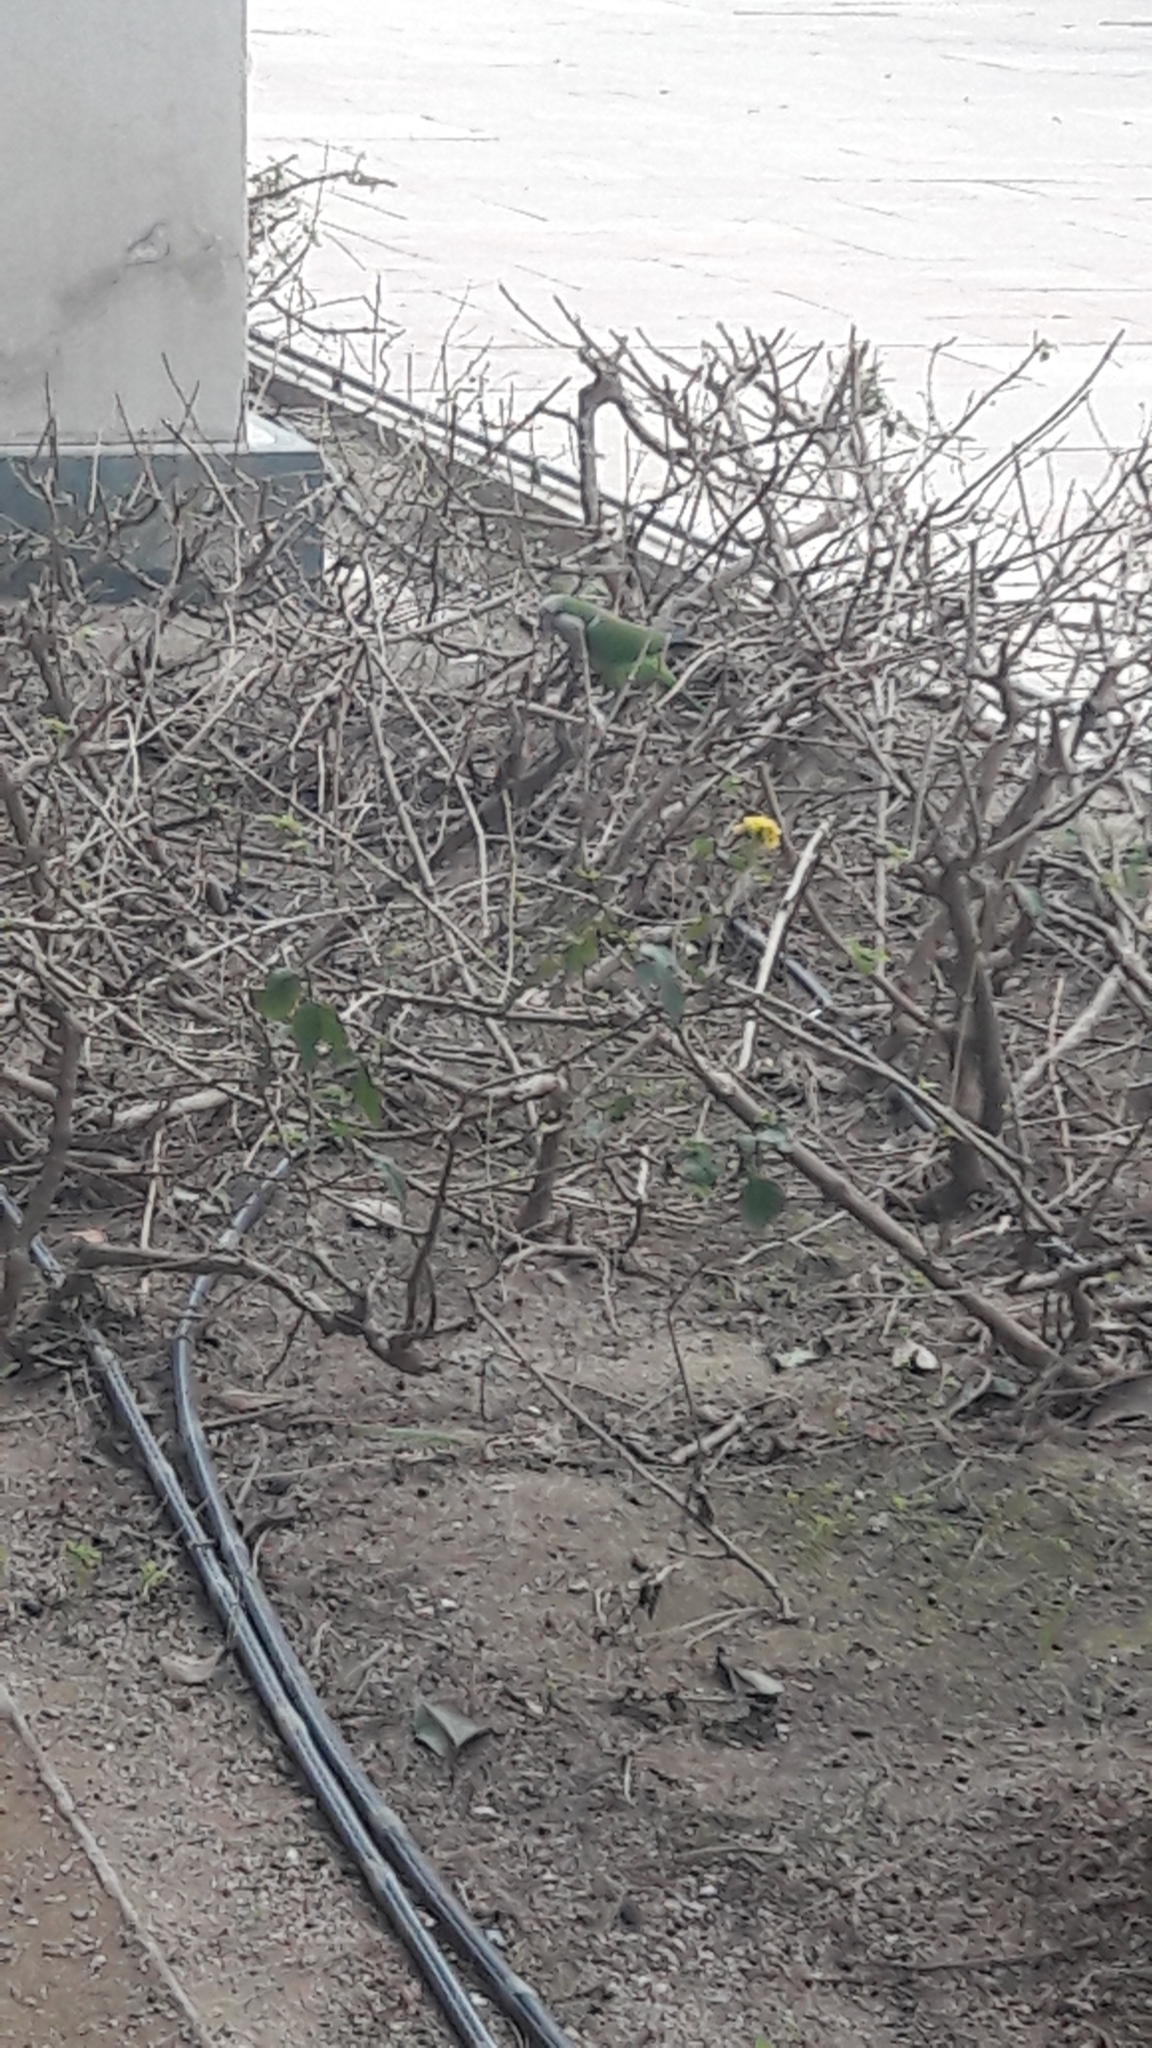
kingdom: Animalia
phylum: Chordata
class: Aves
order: Psittaciformes
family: Psittacidae
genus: Myiopsitta
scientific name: Myiopsitta monachus
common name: Monk parakeet
